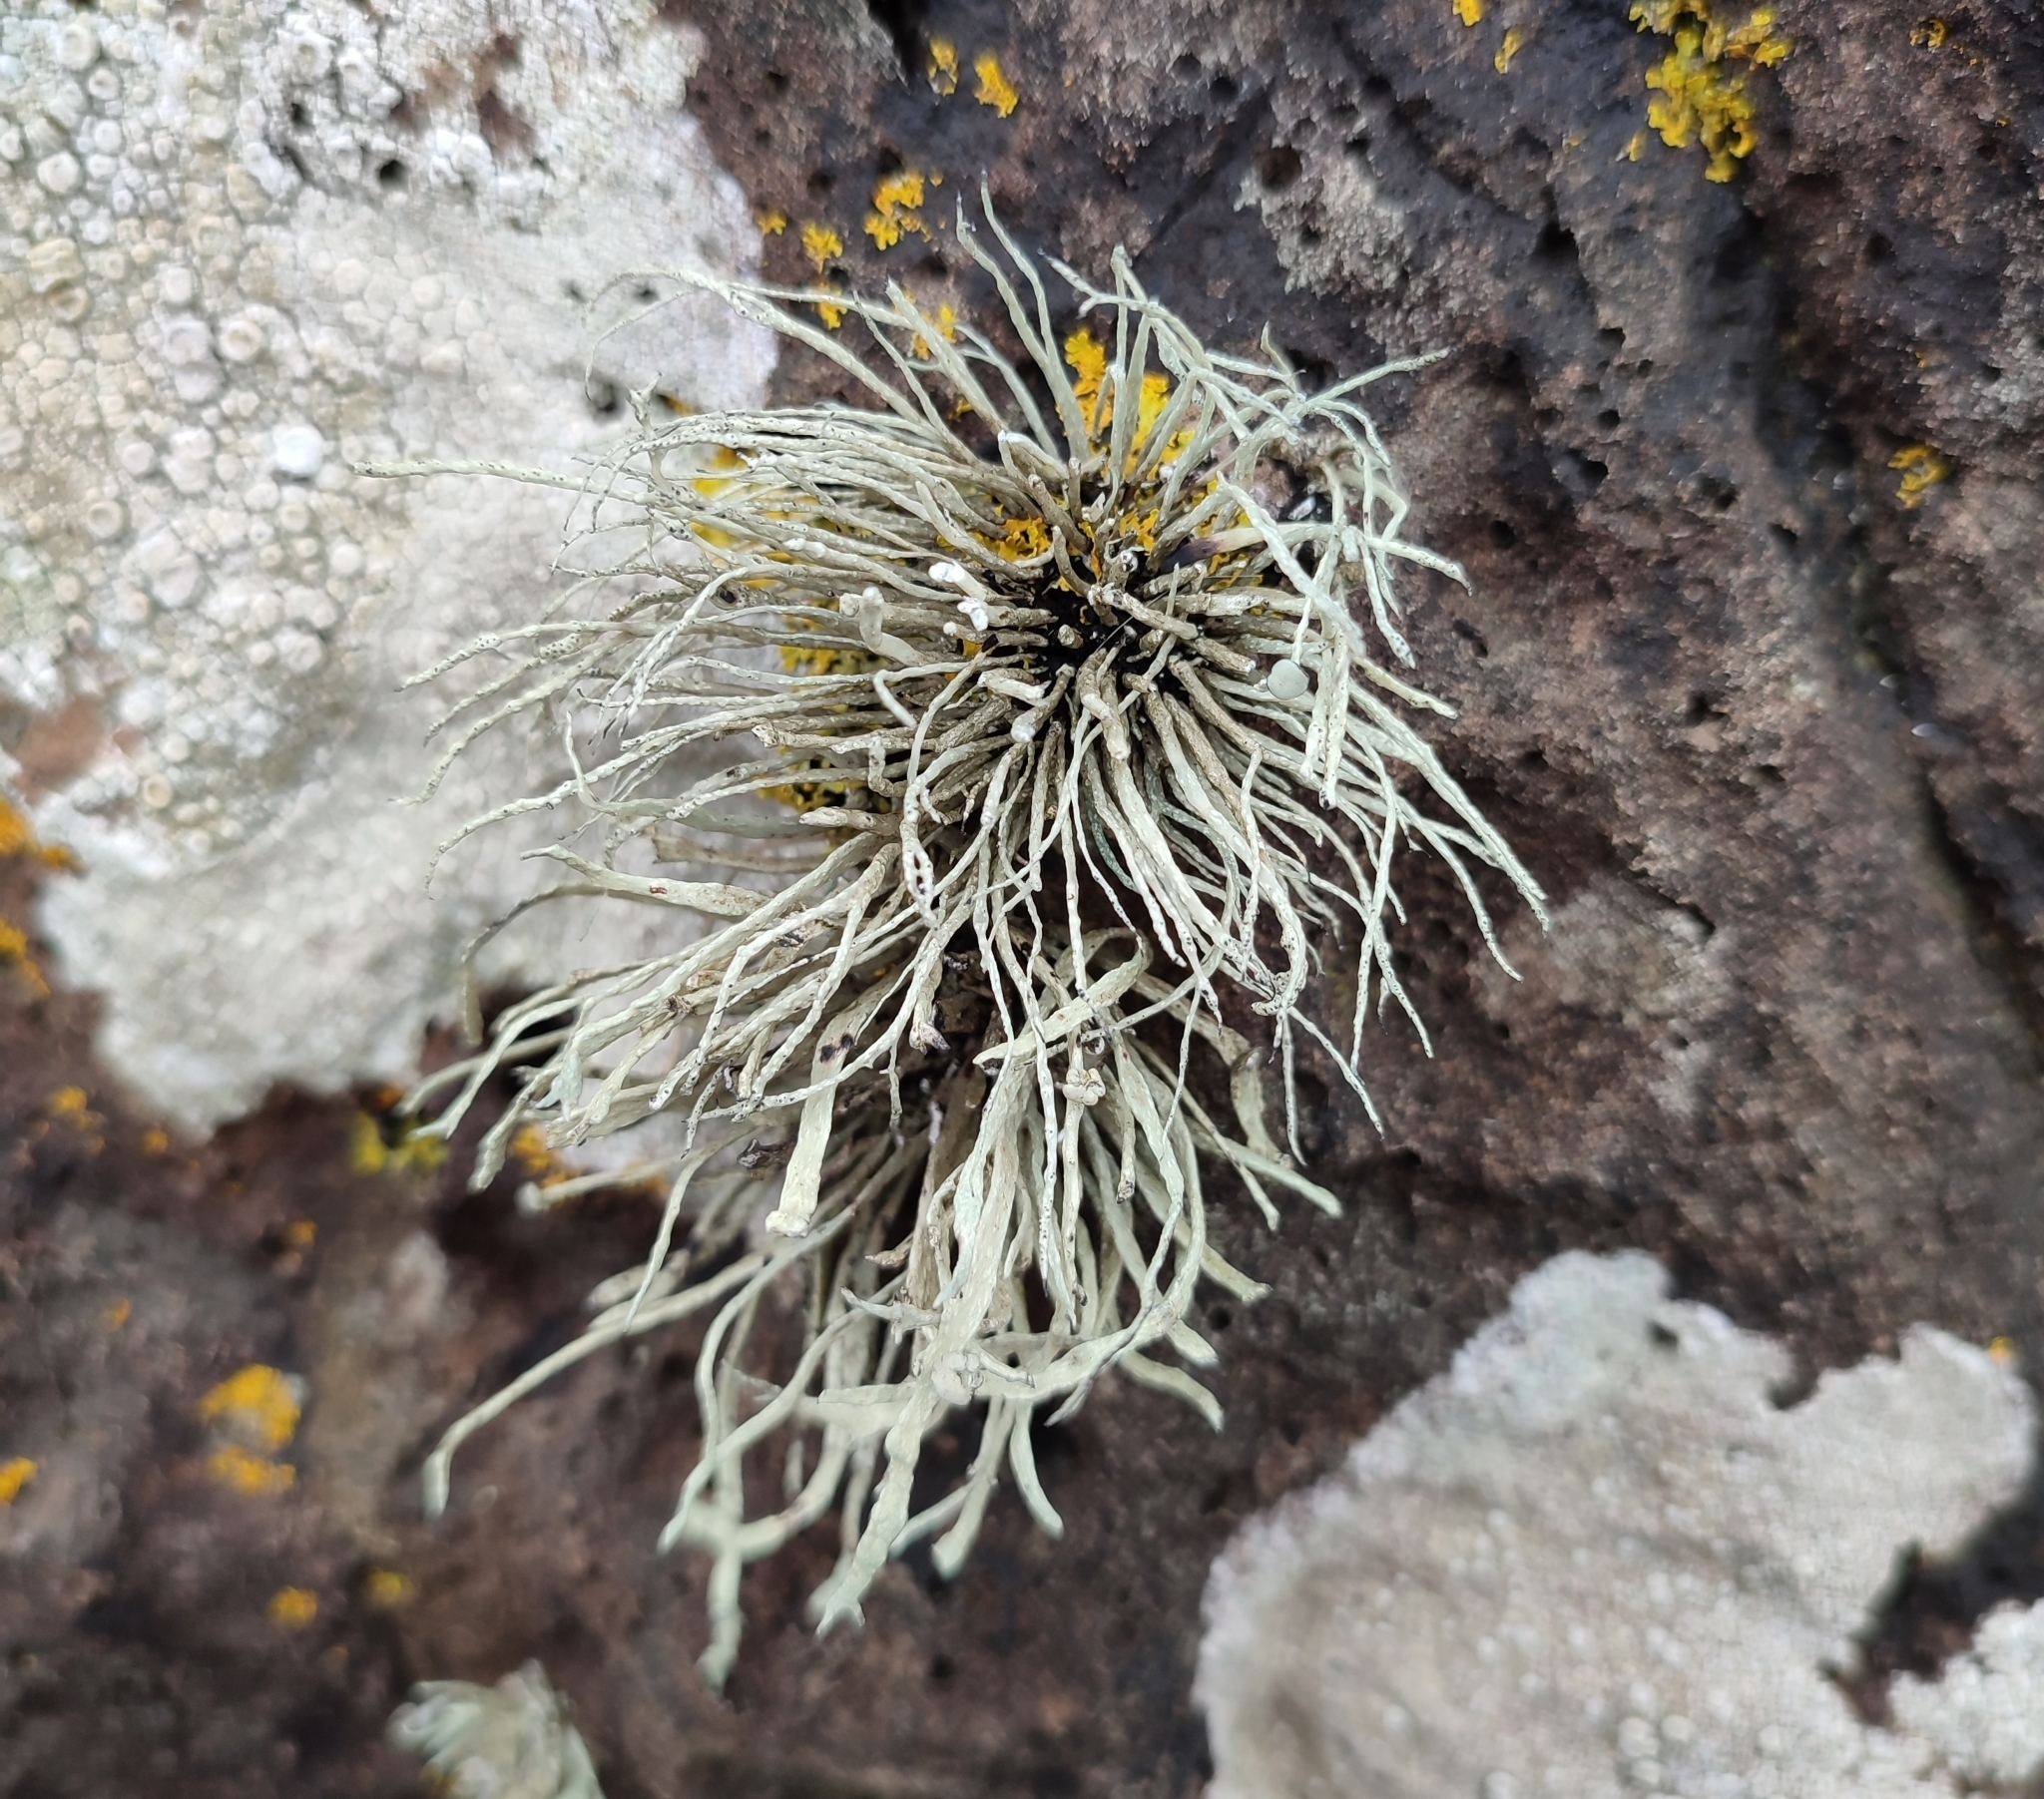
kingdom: Fungi
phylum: Ascomycota
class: Lecanoromycetes
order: Lecanorales
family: Ramalinaceae
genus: Ramalina
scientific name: Ramalina cuspidata
